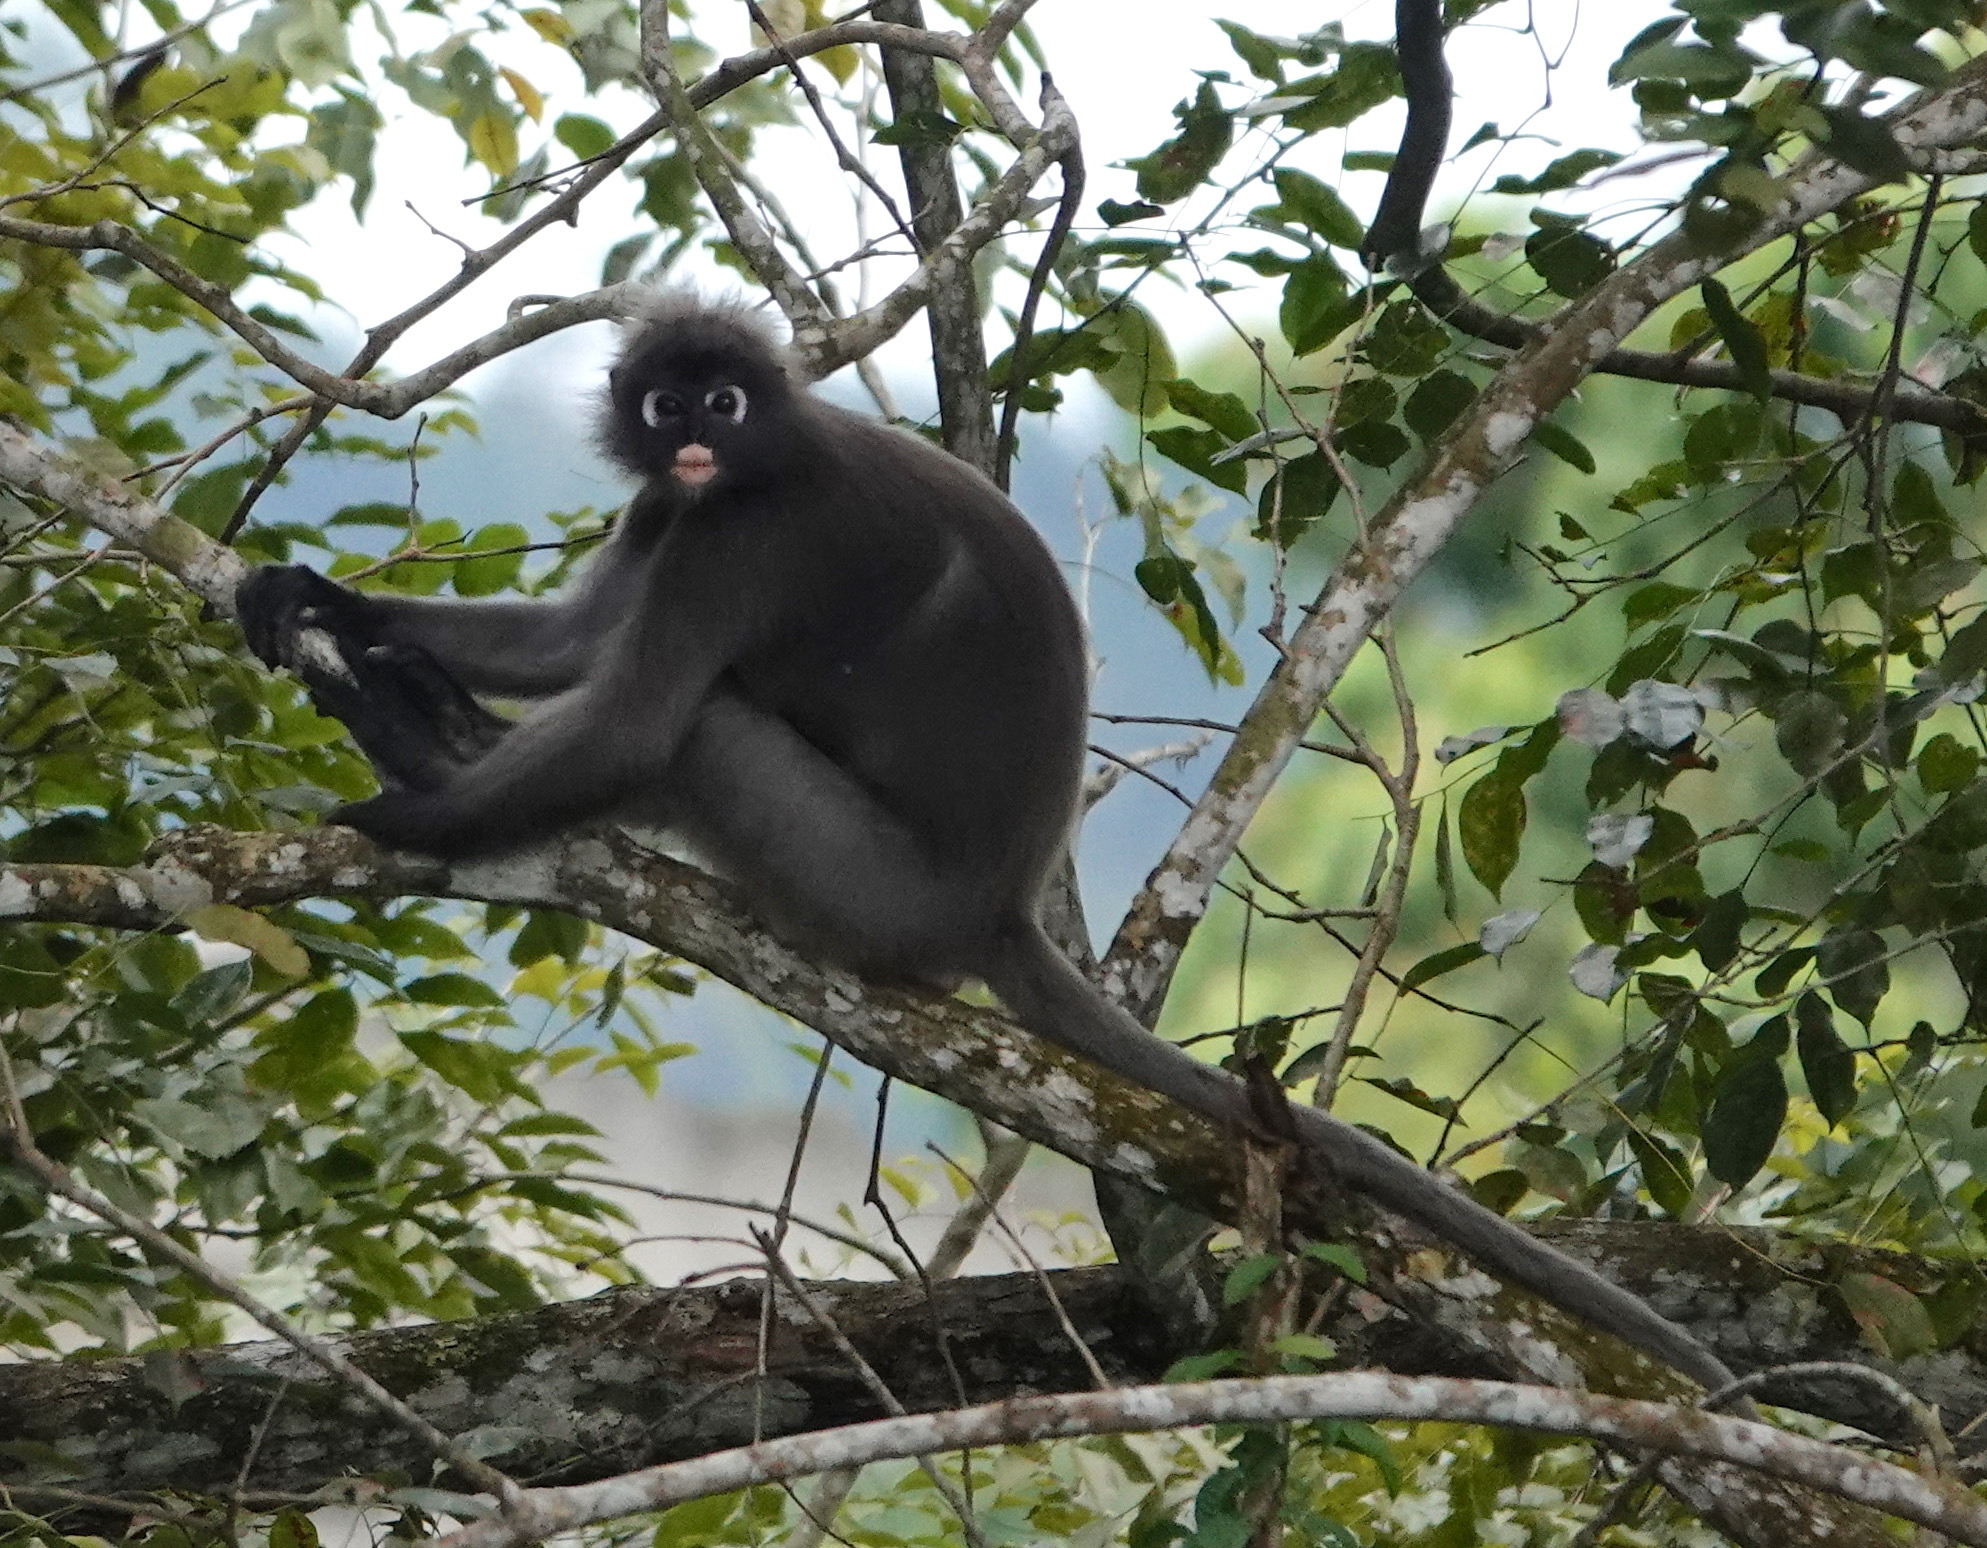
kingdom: Animalia
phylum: Chordata
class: Mammalia
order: Primates
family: Cercopithecidae
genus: Trachypithecus
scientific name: Trachypithecus obscurus
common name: Dusky leaf-monkey
